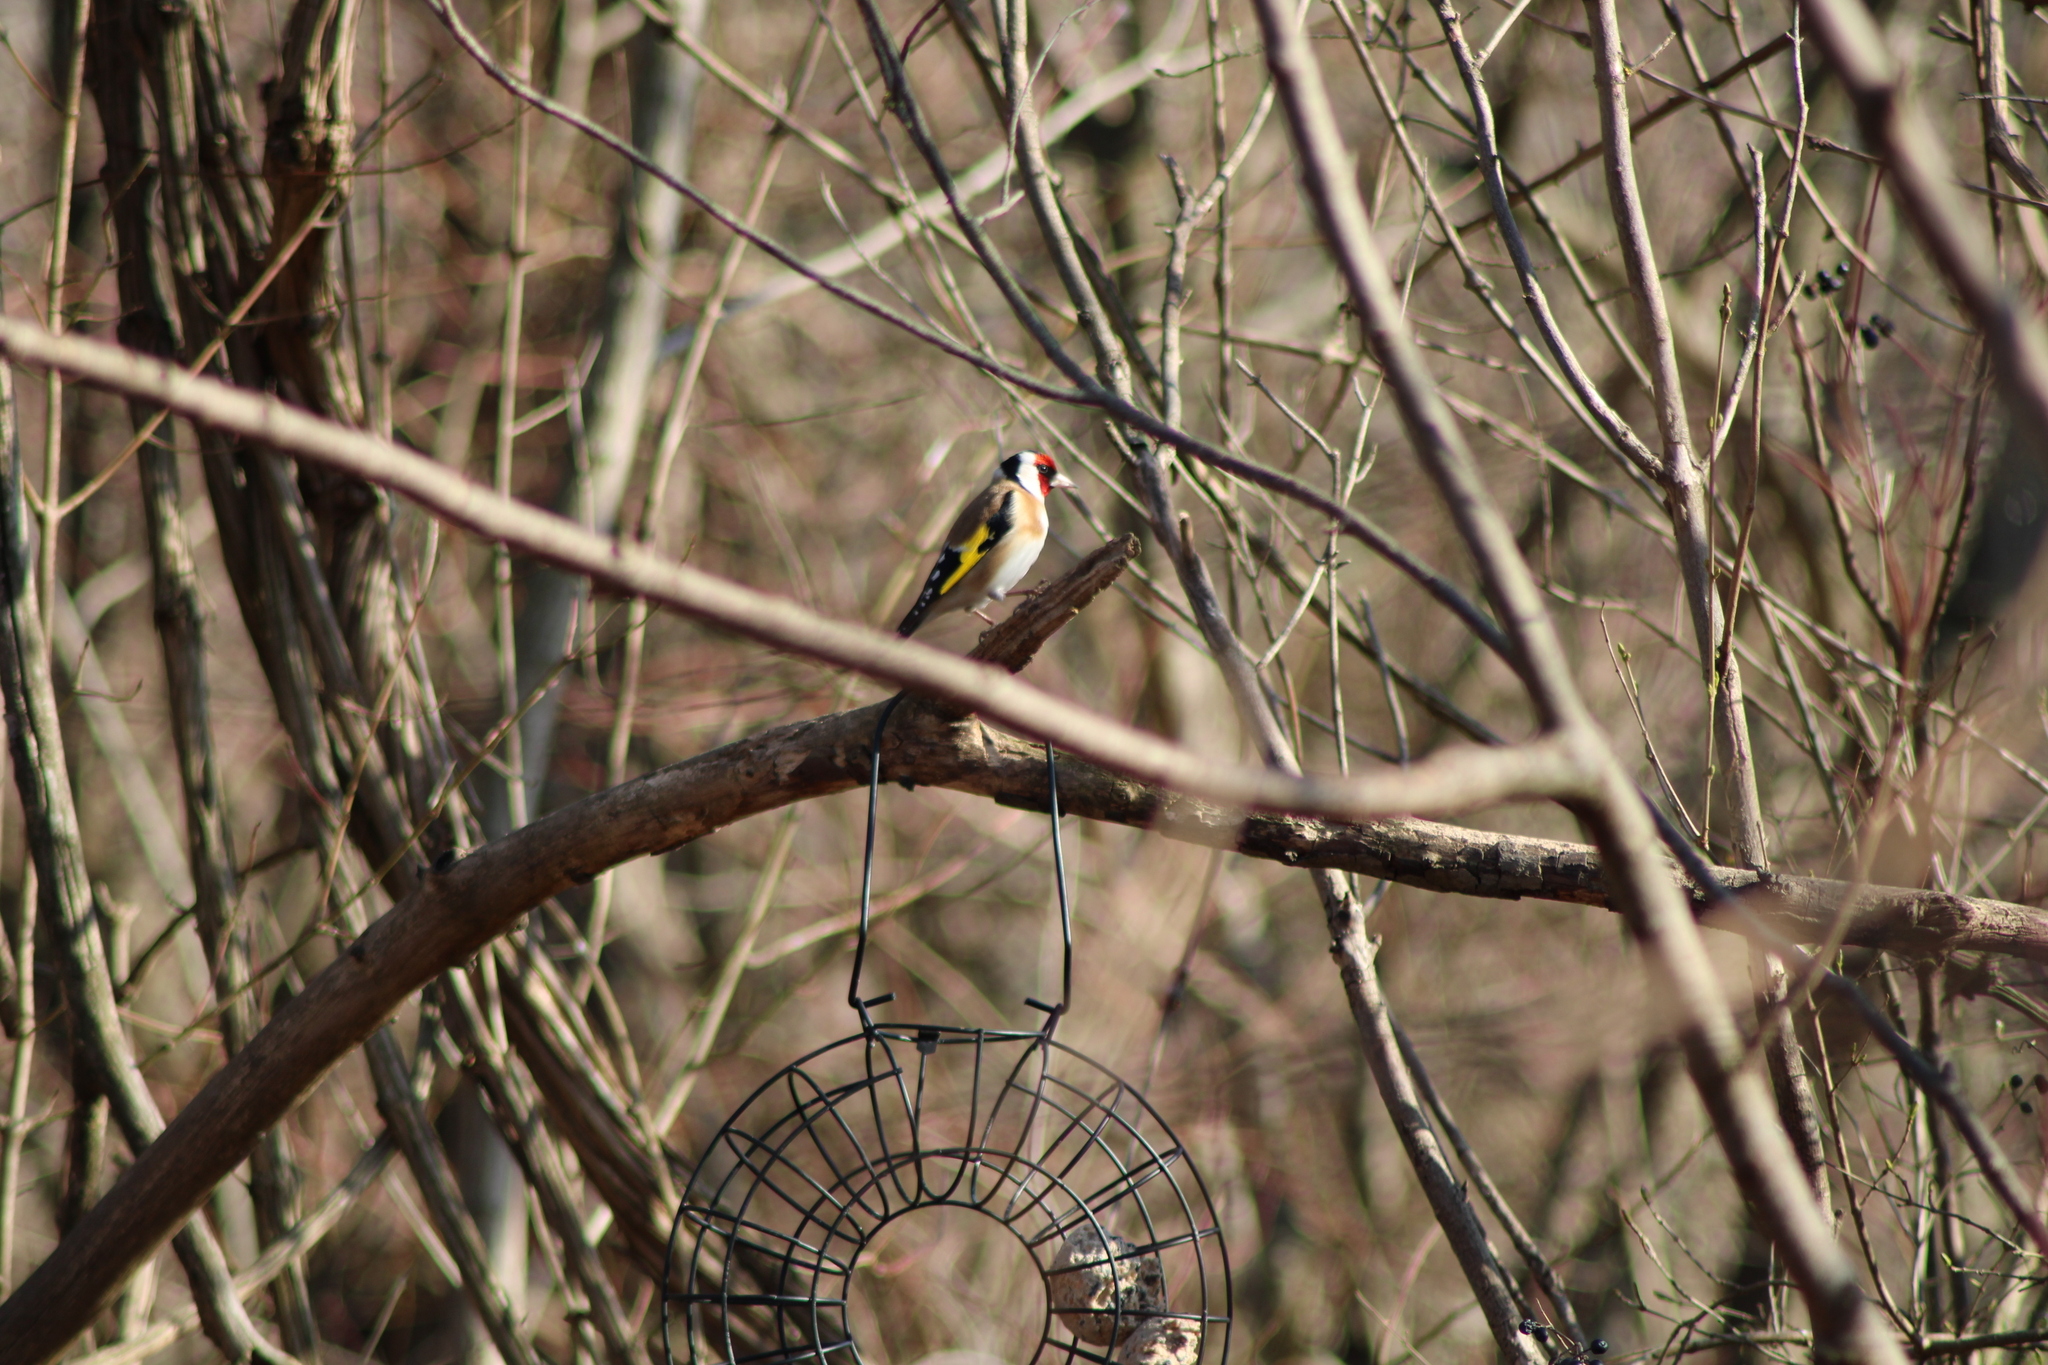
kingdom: Animalia
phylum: Chordata
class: Aves
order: Passeriformes
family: Fringillidae
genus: Carduelis
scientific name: Carduelis carduelis
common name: European goldfinch
